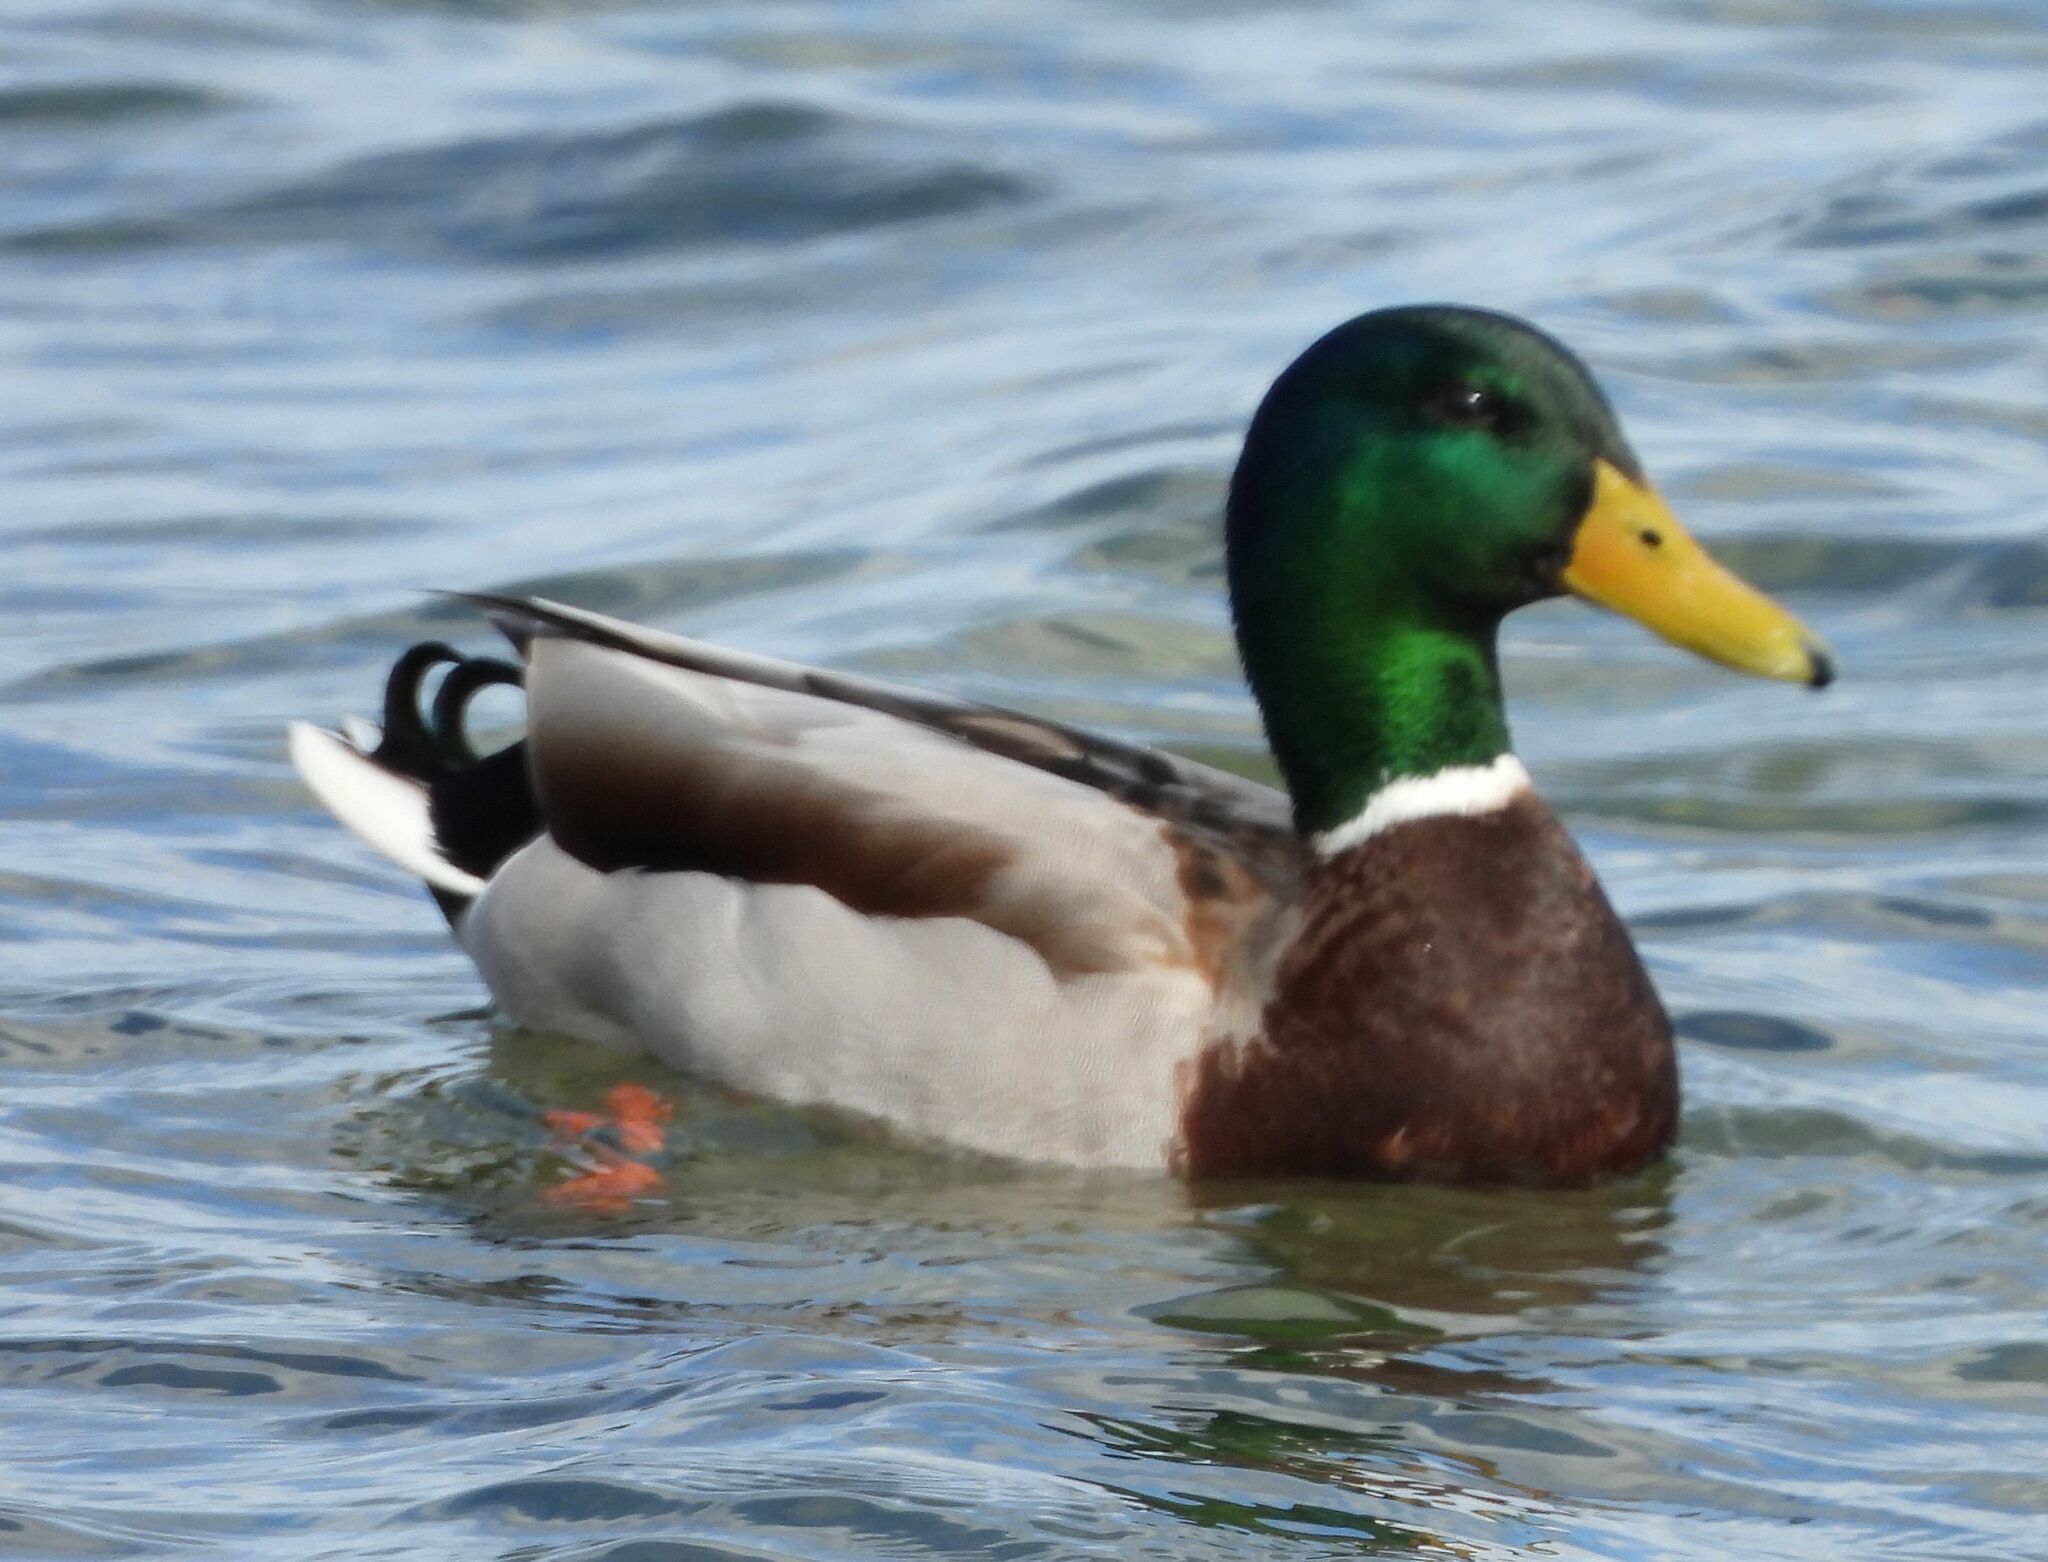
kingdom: Animalia
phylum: Chordata
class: Aves
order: Anseriformes
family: Anatidae
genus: Anas
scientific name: Anas platyrhynchos
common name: Mallard
